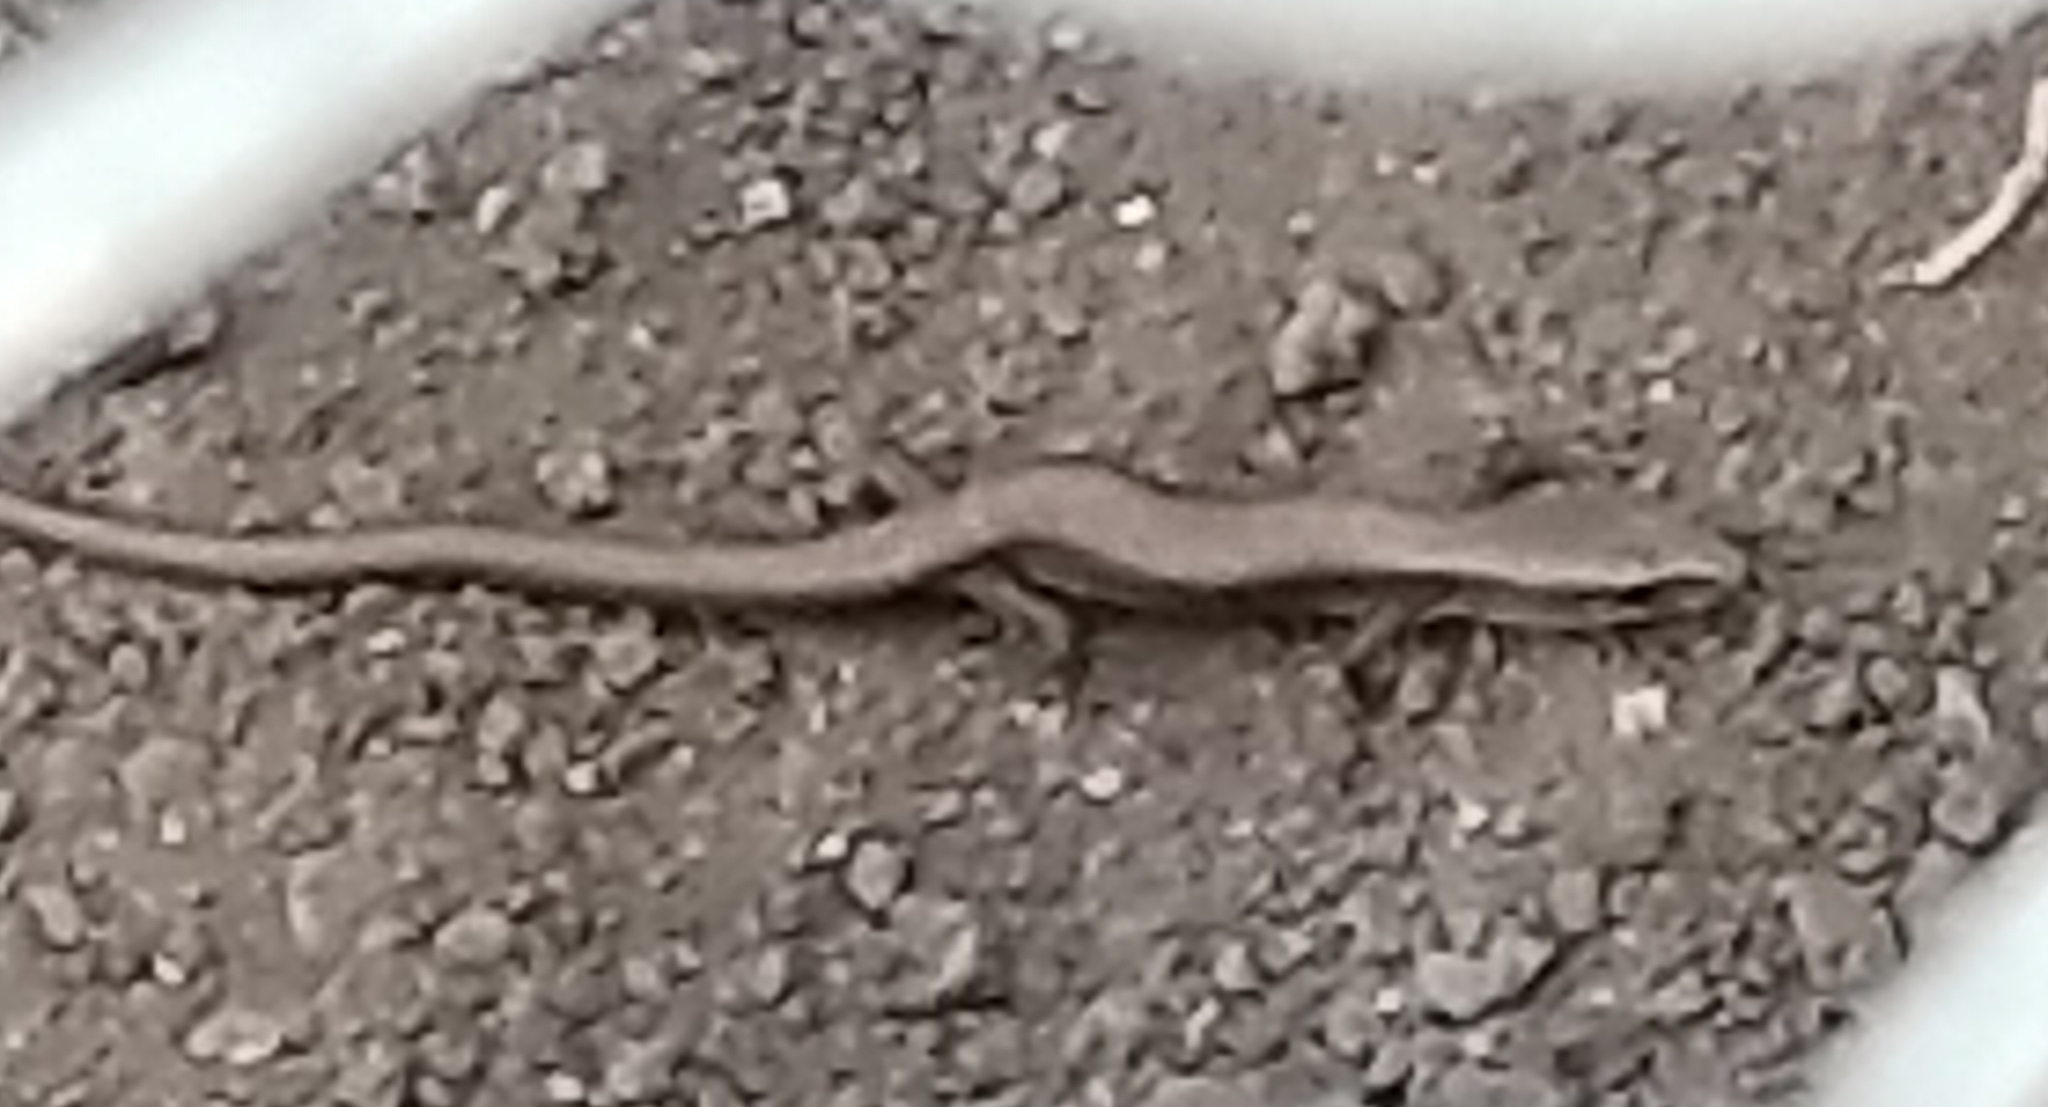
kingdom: Animalia
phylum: Chordata
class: Squamata
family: Anguidae
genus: Elgaria
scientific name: Elgaria multicarinata
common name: Southern alligator lizard
